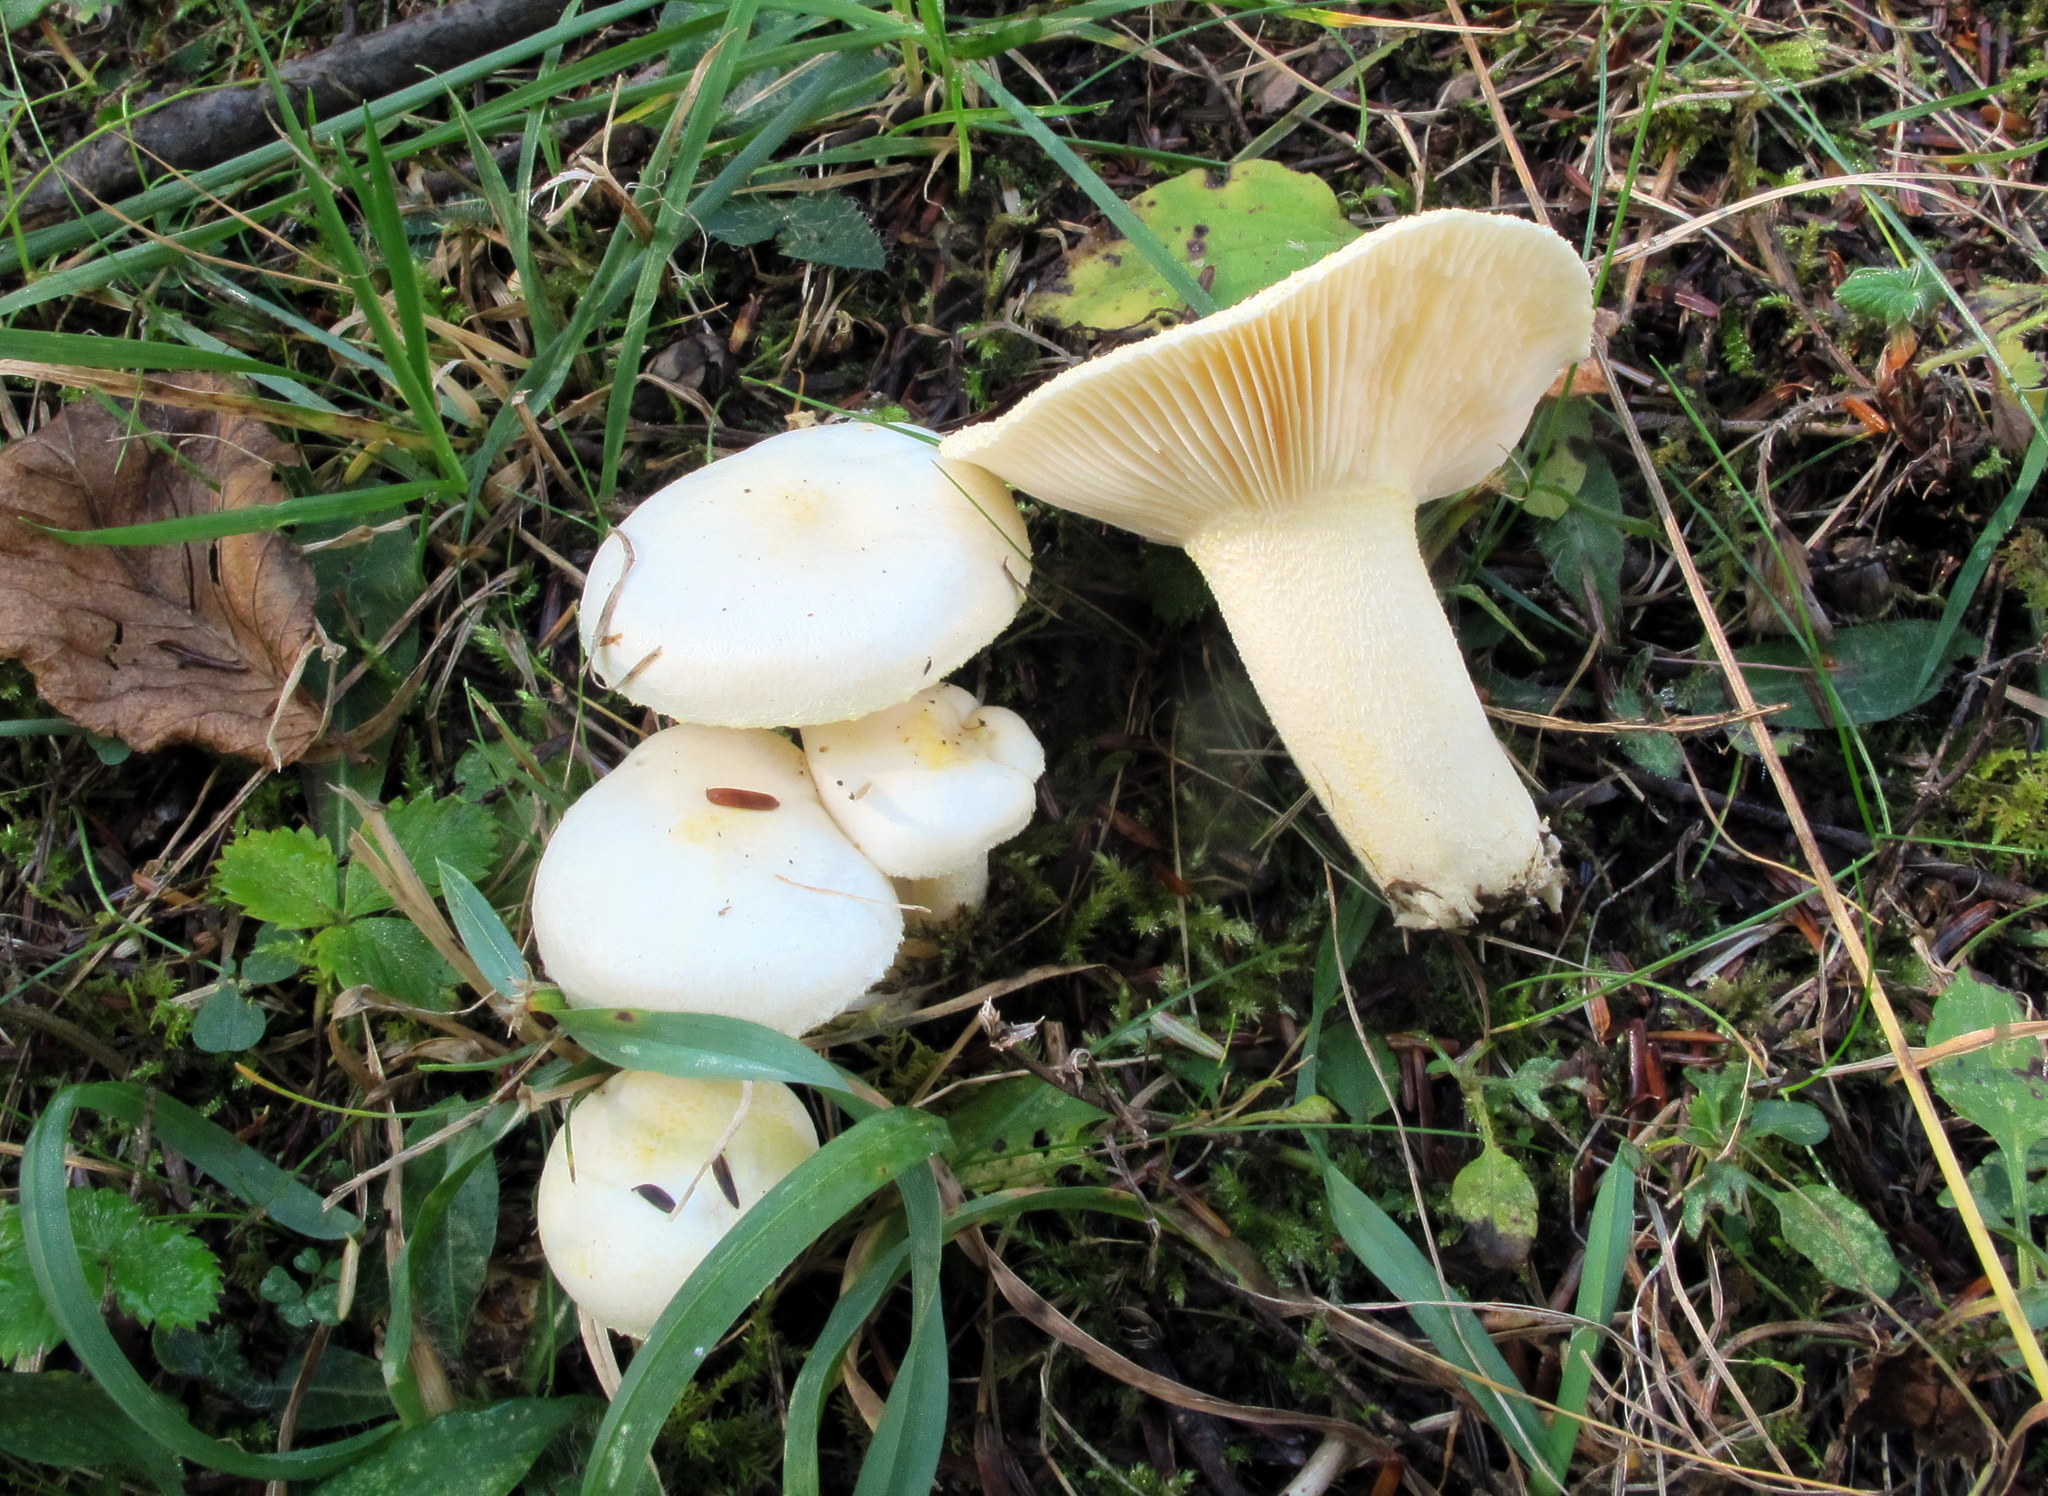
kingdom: Fungi
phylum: Basidiomycota
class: Agaricomycetes
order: Agaricales
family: Hygrophoraceae
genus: Hygrophorus
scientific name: Hygrophorus chrysodon
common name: Gold flecked woodwax
